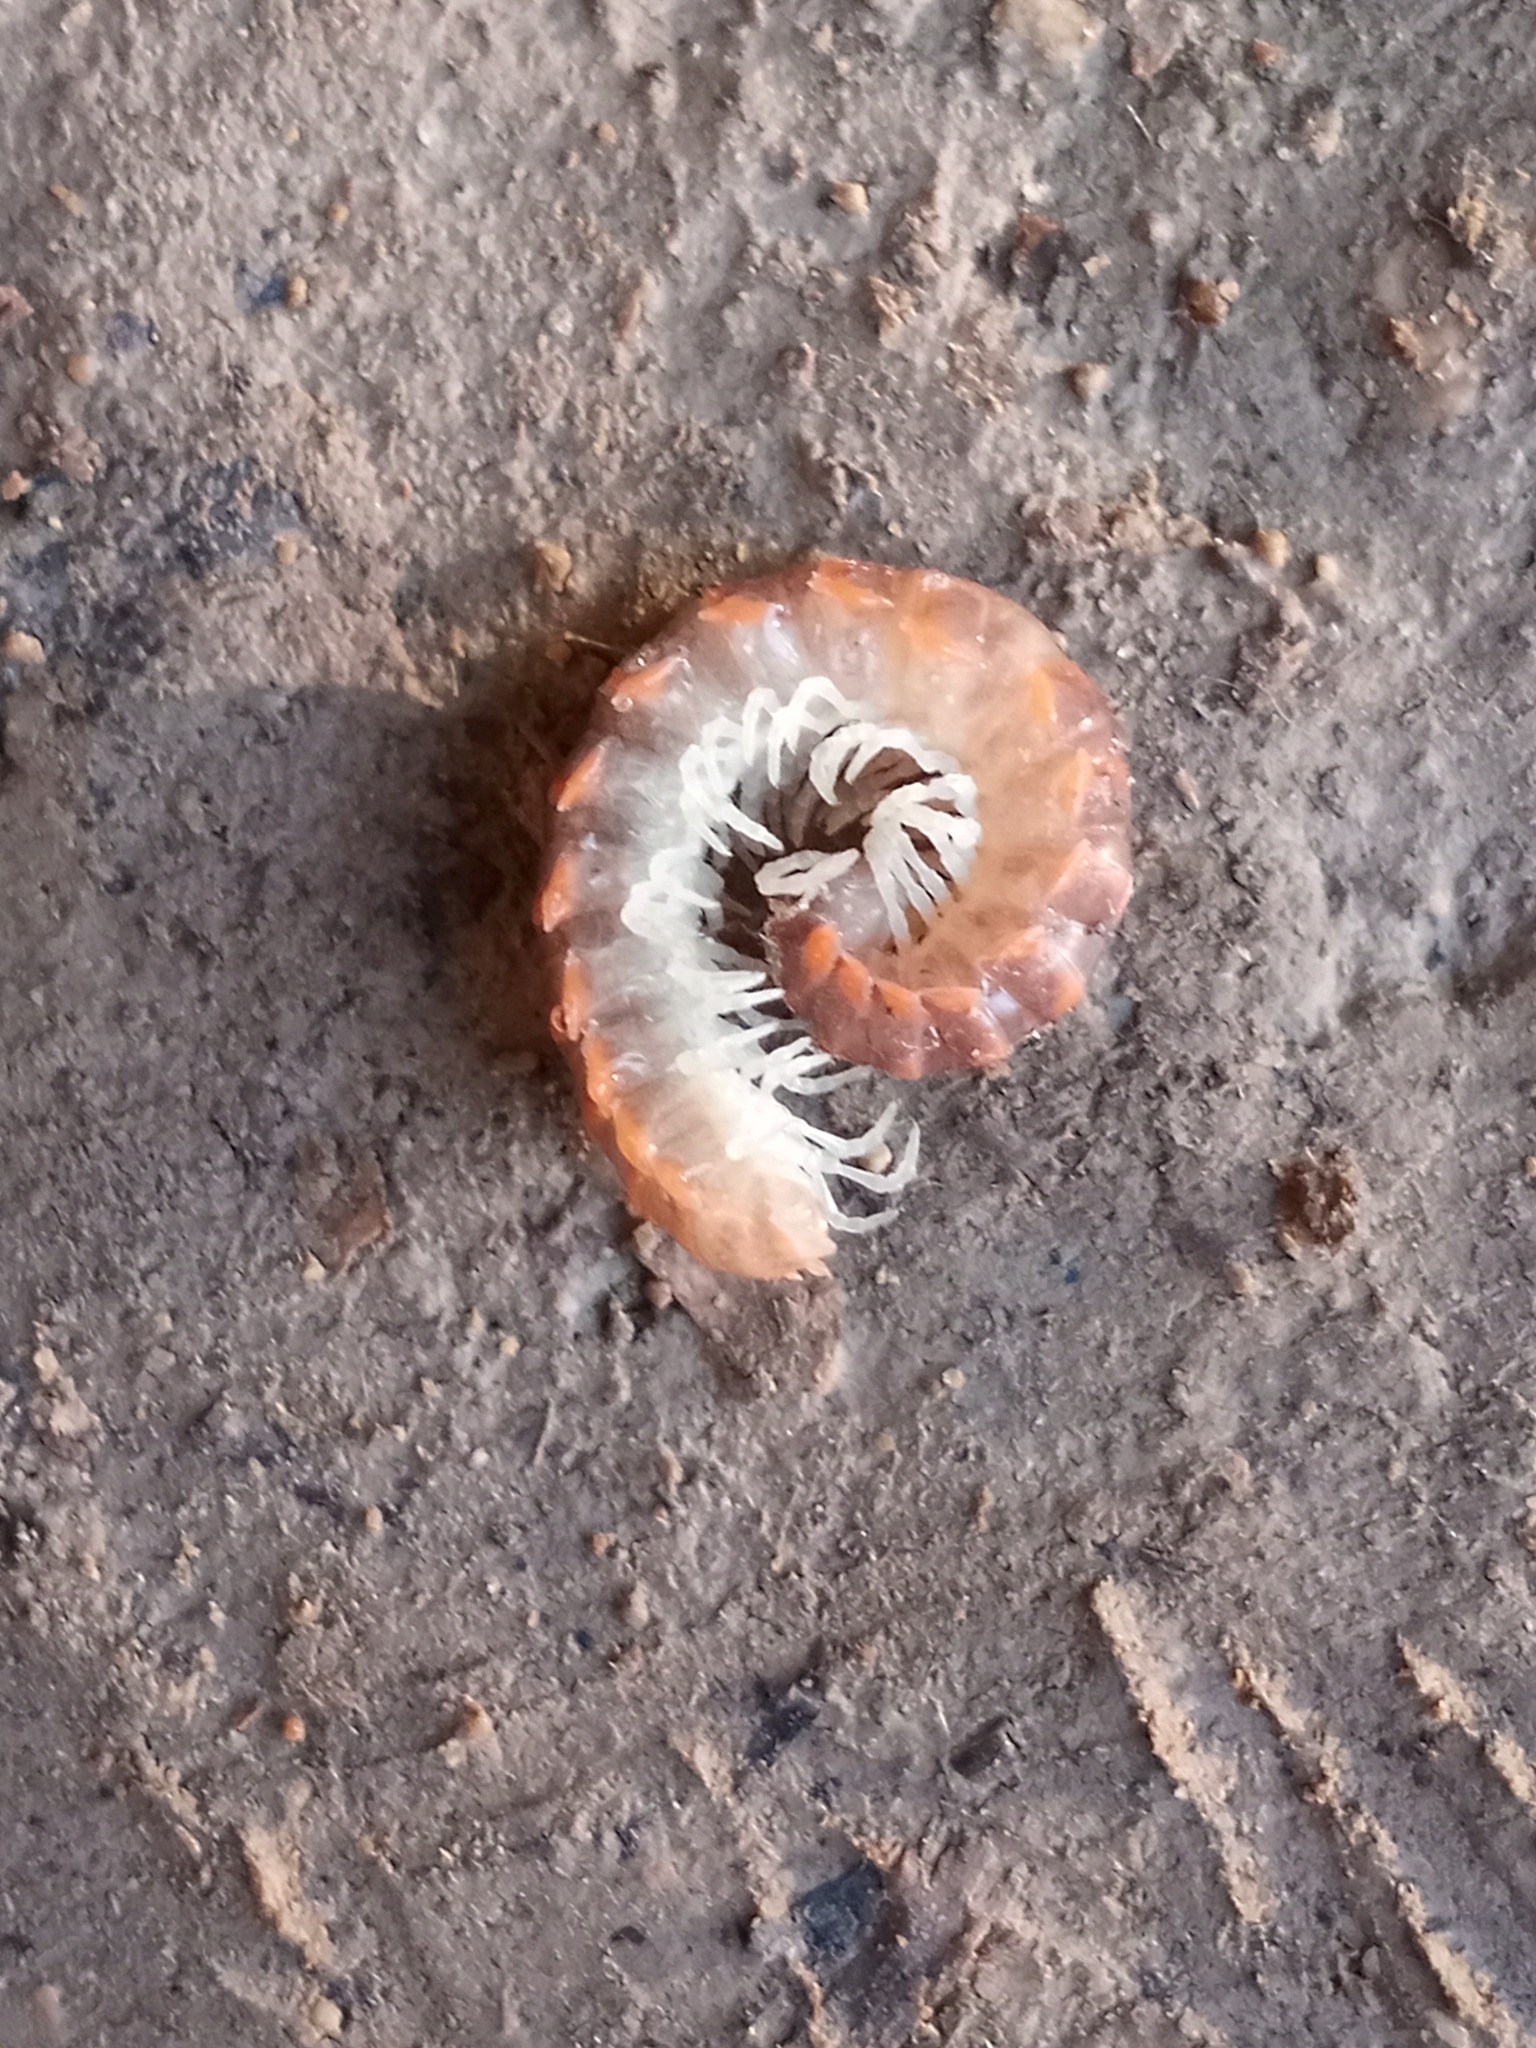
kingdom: Animalia
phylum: Arthropoda
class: Diplopoda
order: Polydesmida
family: Xystodesmidae
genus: Euryurus
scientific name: Euryurus leachii
